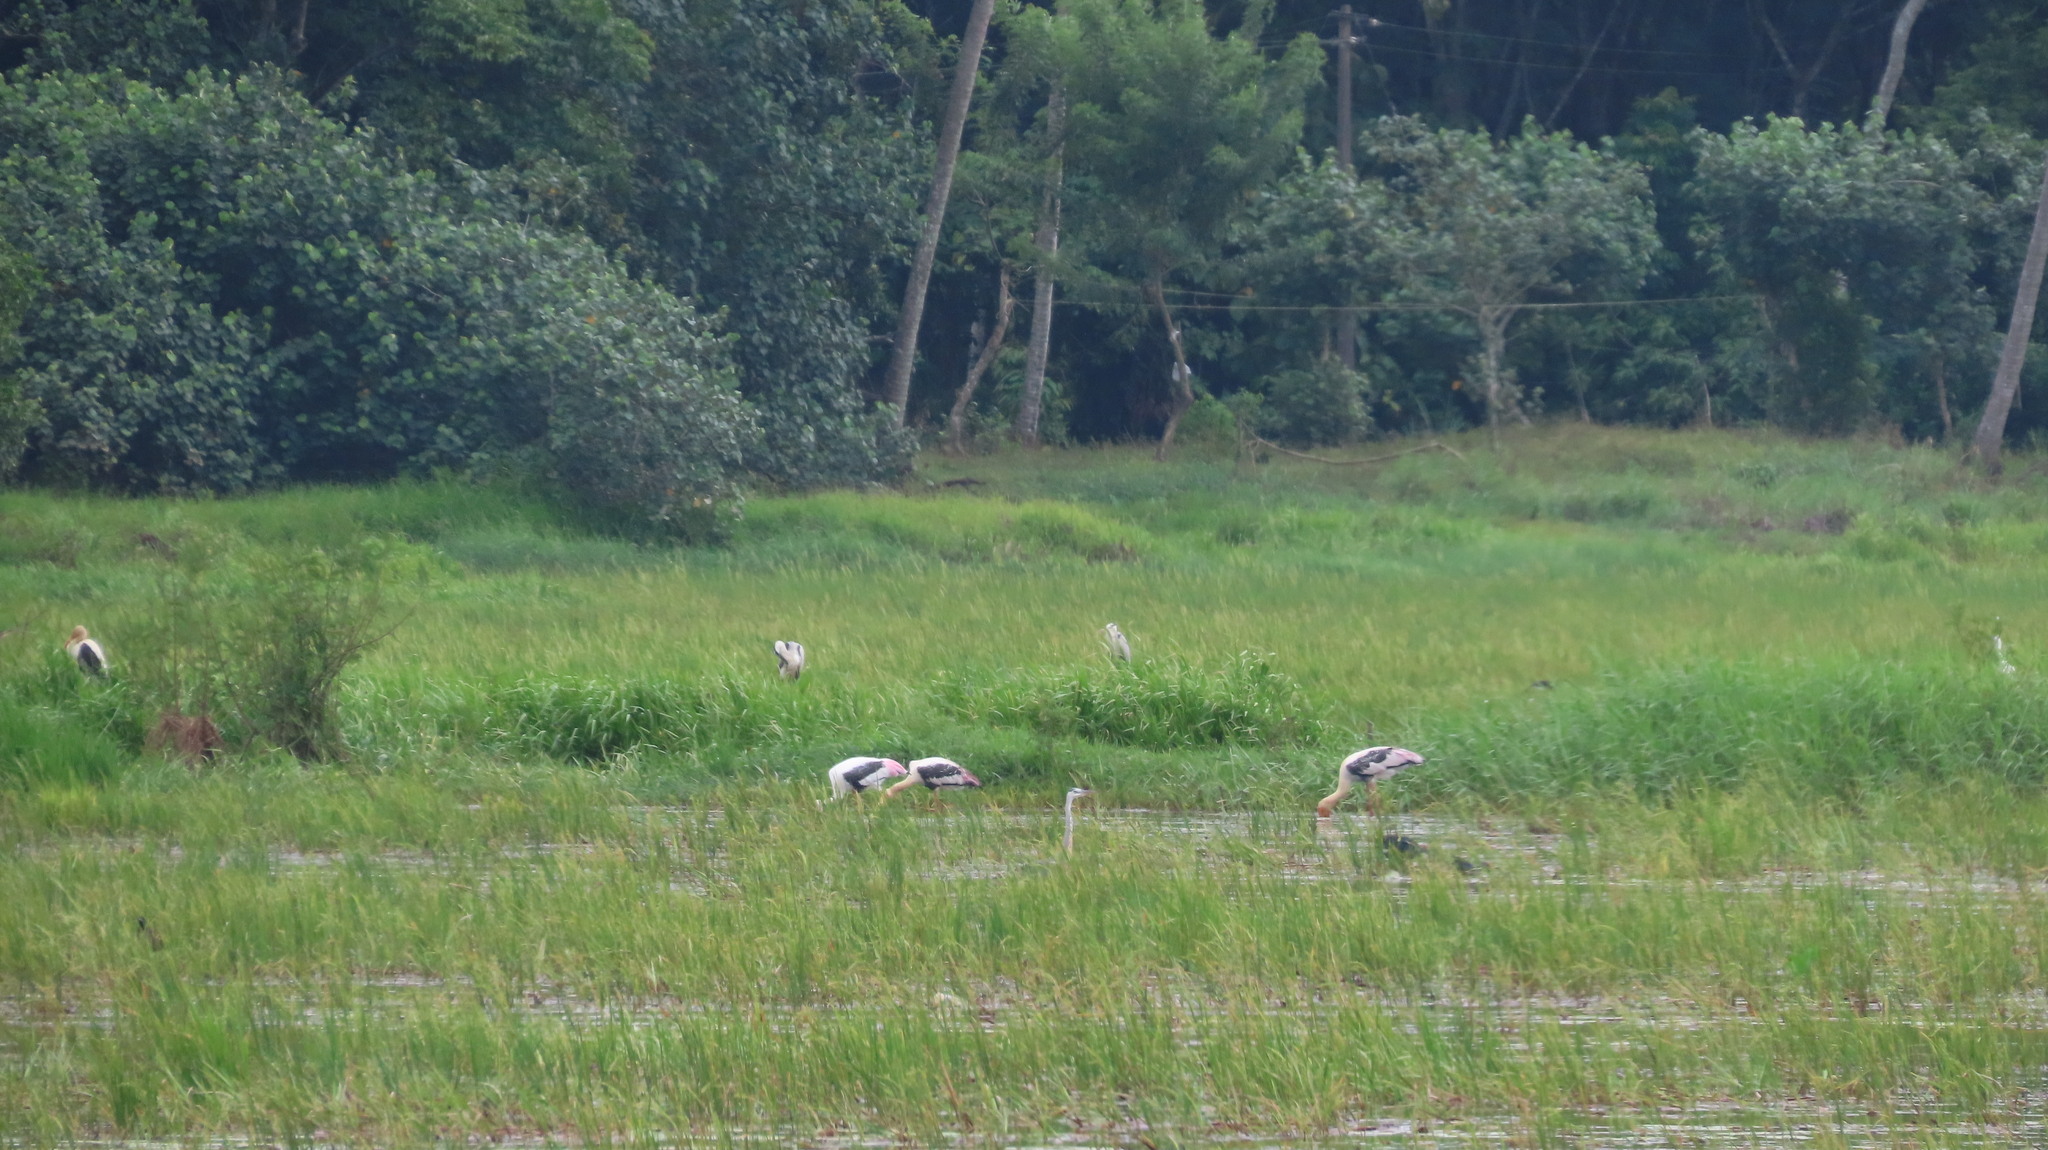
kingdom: Animalia
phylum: Chordata
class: Aves
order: Ciconiiformes
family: Ciconiidae
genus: Mycteria
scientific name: Mycteria leucocephala
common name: Painted stork
